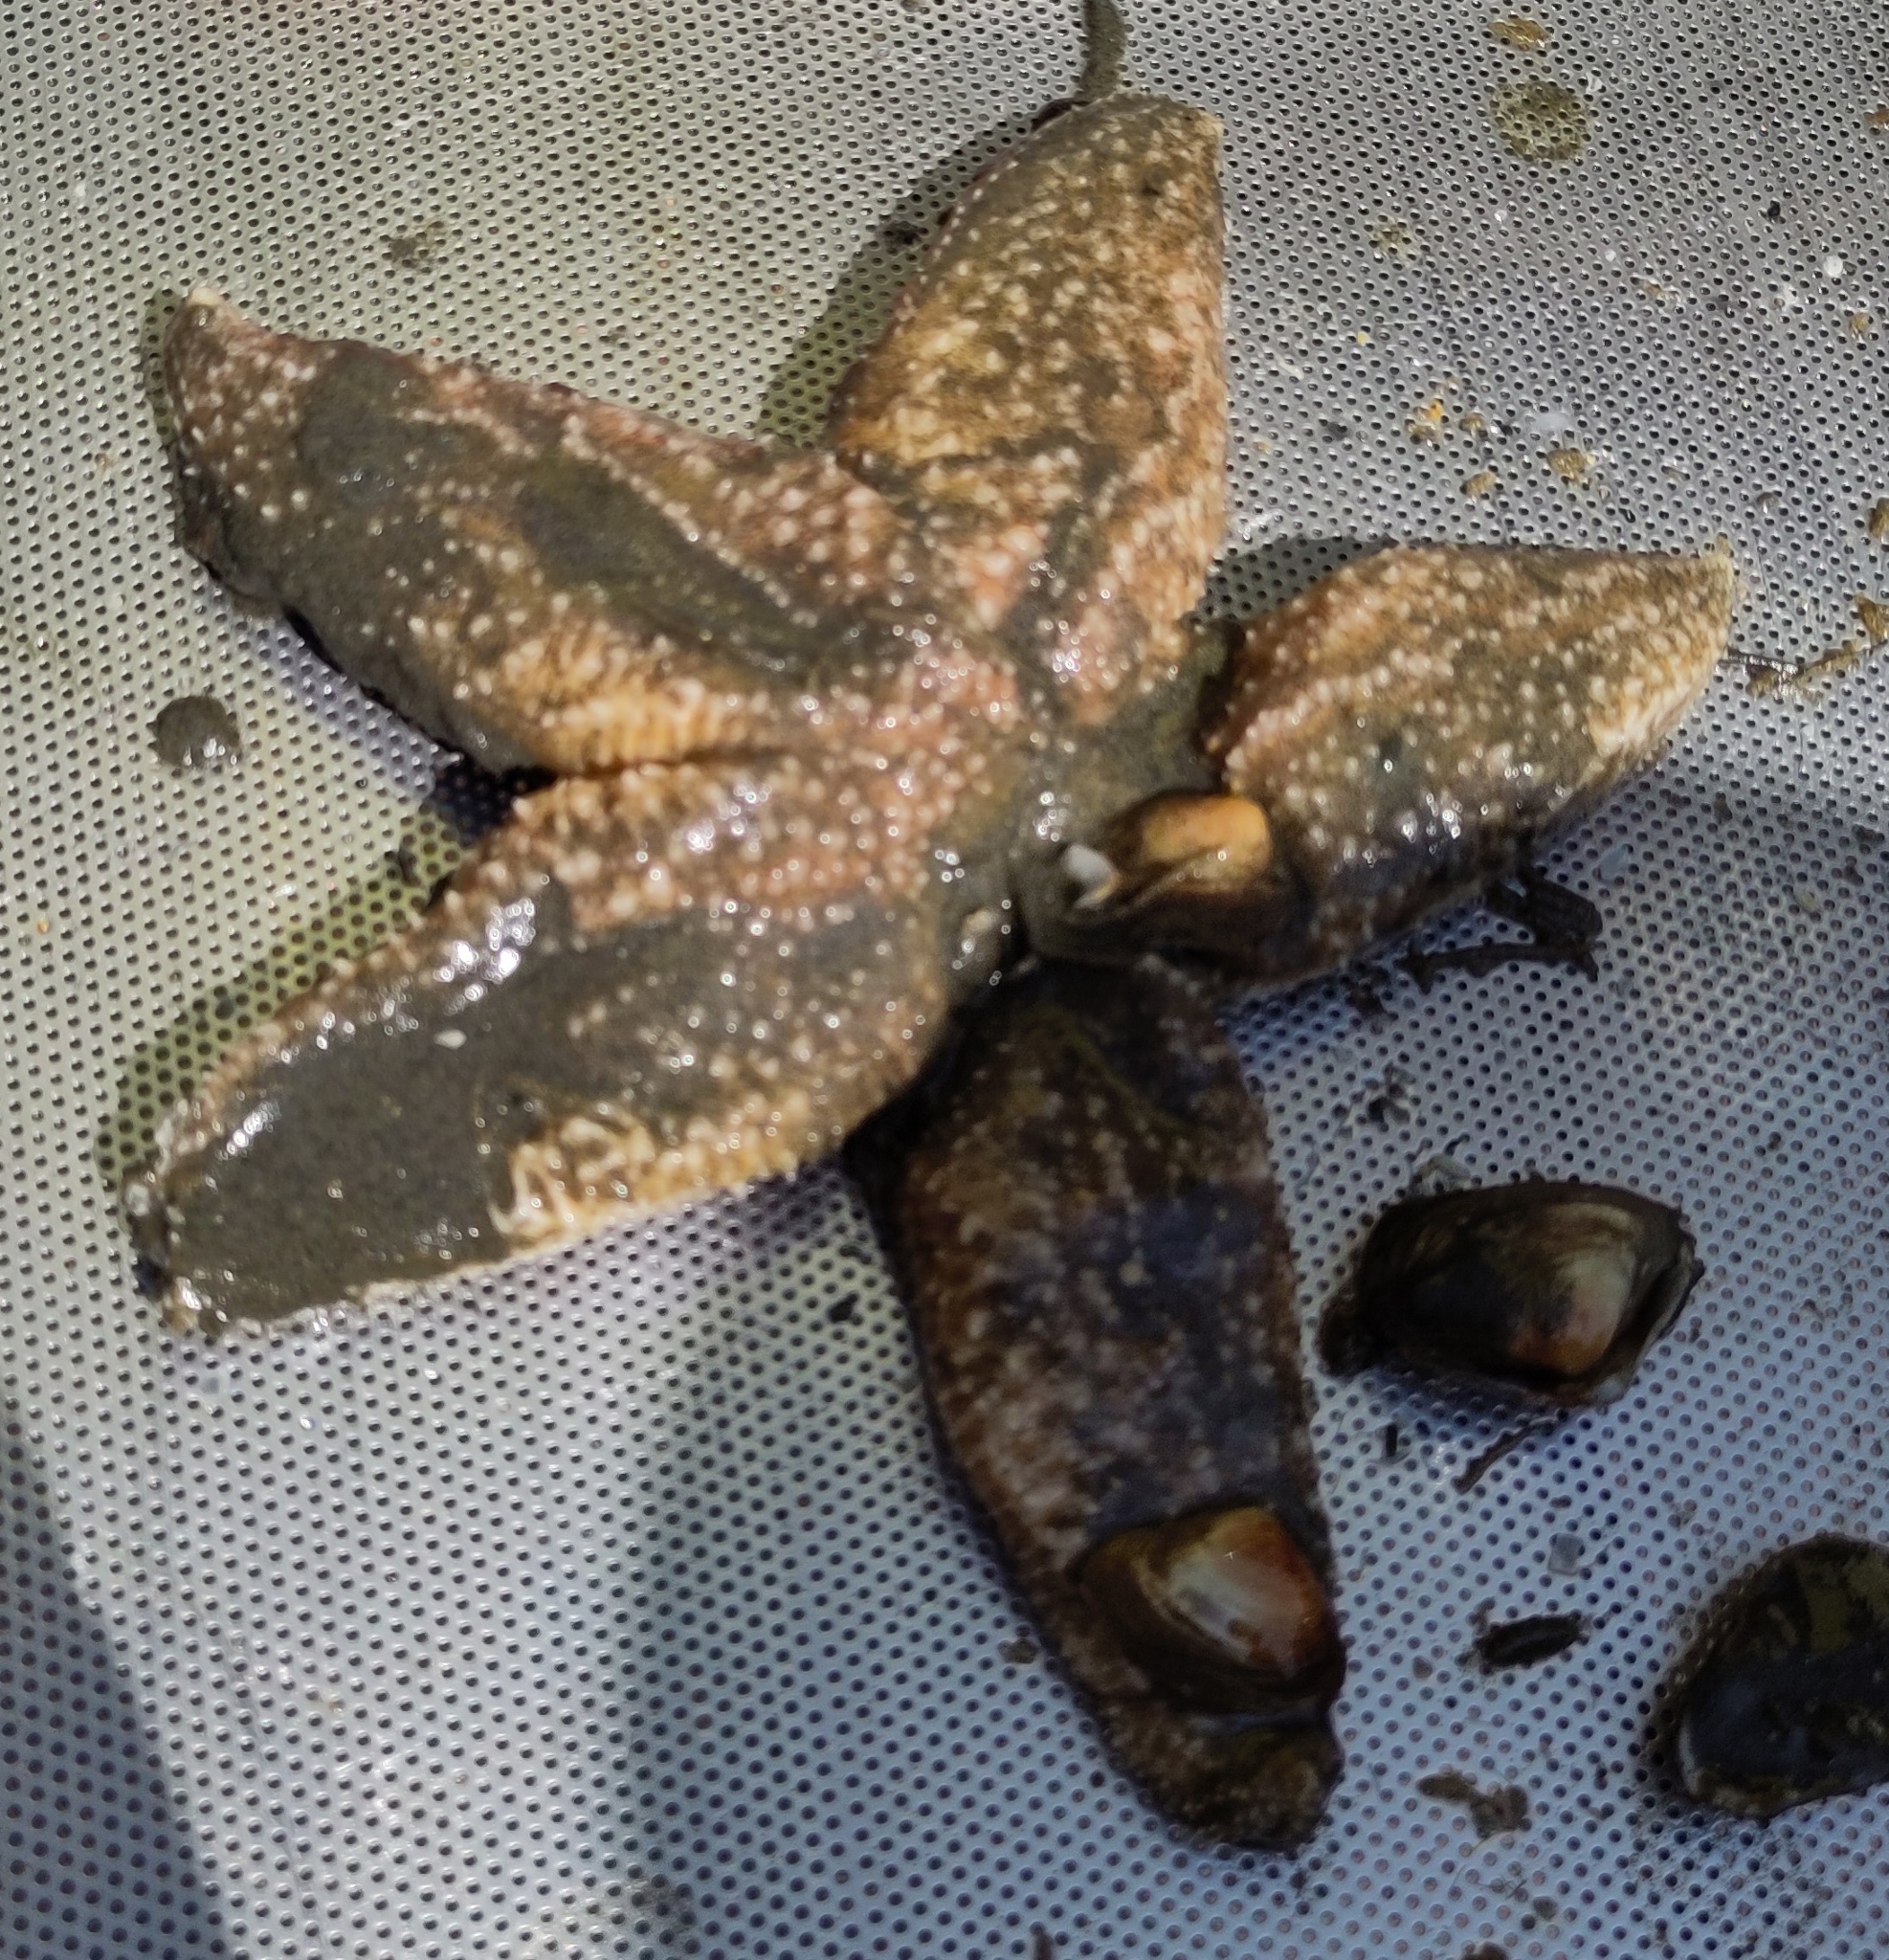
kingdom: Animalia
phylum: Echinodermata
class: Asteroidea
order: Forcipulatida
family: Asteriidae
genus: Asterias
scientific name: Asterias rubens
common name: Common starfish
